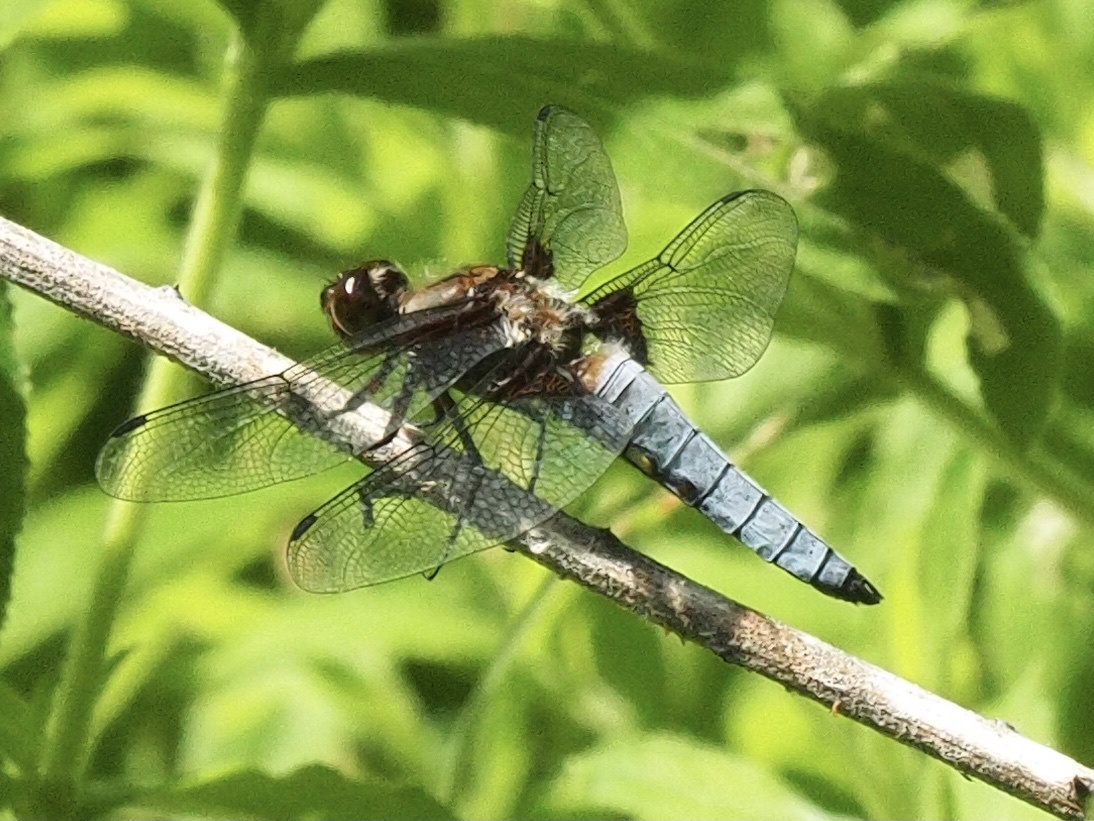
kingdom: Animalia
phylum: Arthropoda
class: Insecta
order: Odonata
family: Libellulidae
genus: Libellula
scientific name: Libellula depressa
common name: Broad-bodied chaser
